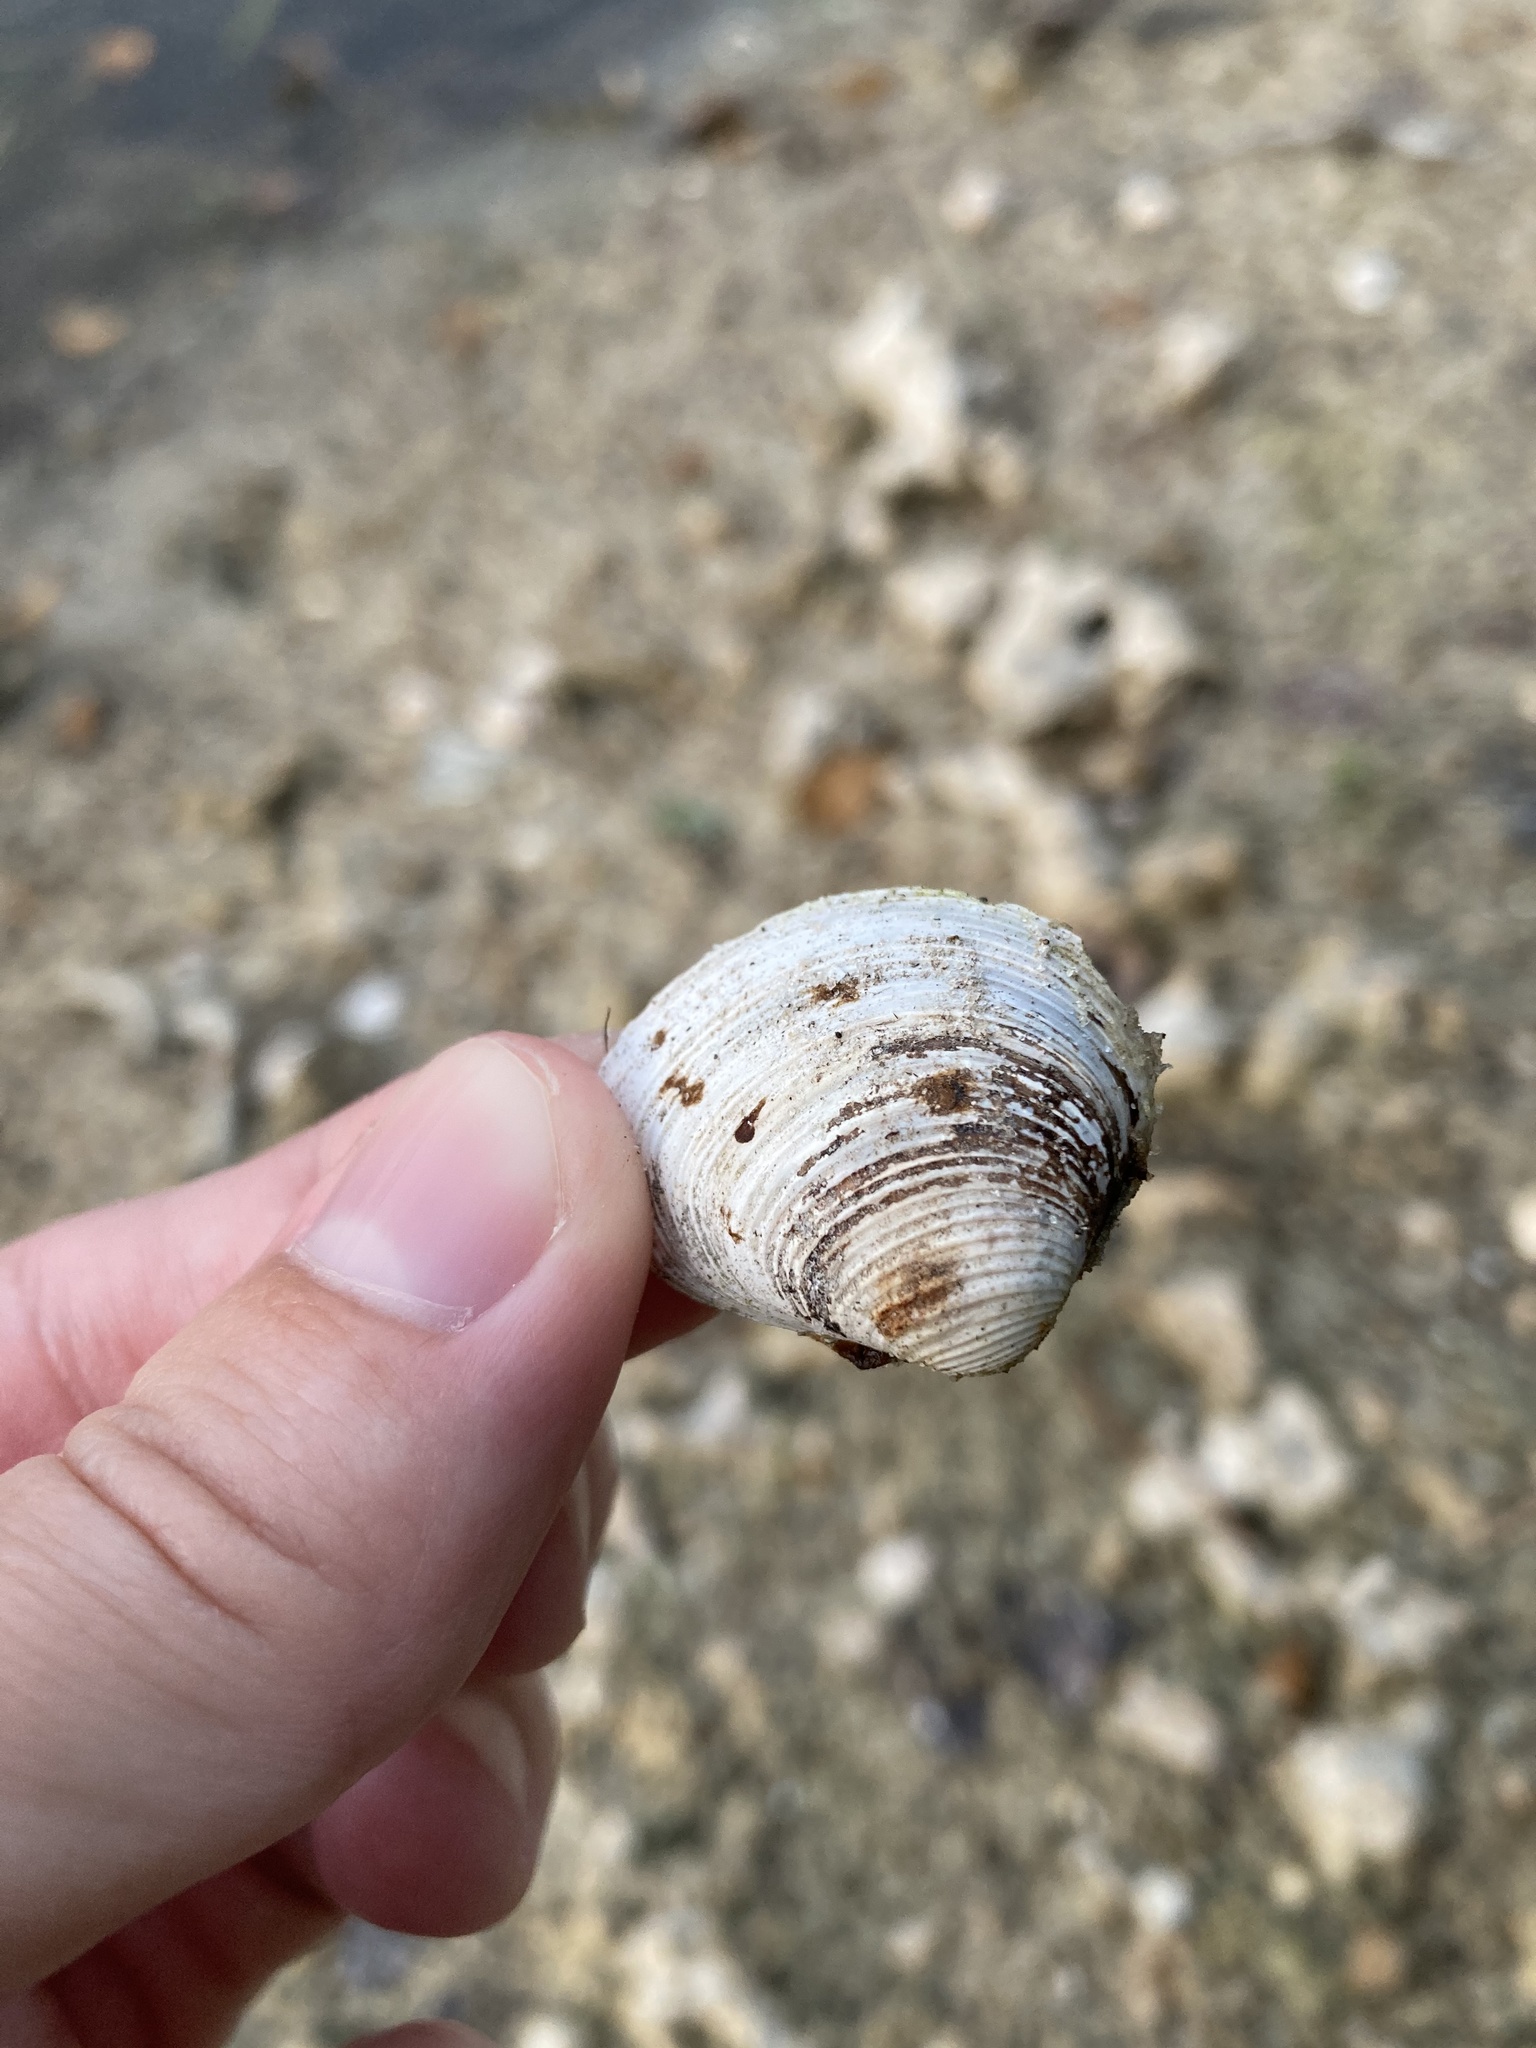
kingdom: Animalia
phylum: Mollusca
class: Bivalvia
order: Venerida
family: Cyrenidae
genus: Corbicula
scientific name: Corbicula fluminea
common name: Asian clam
